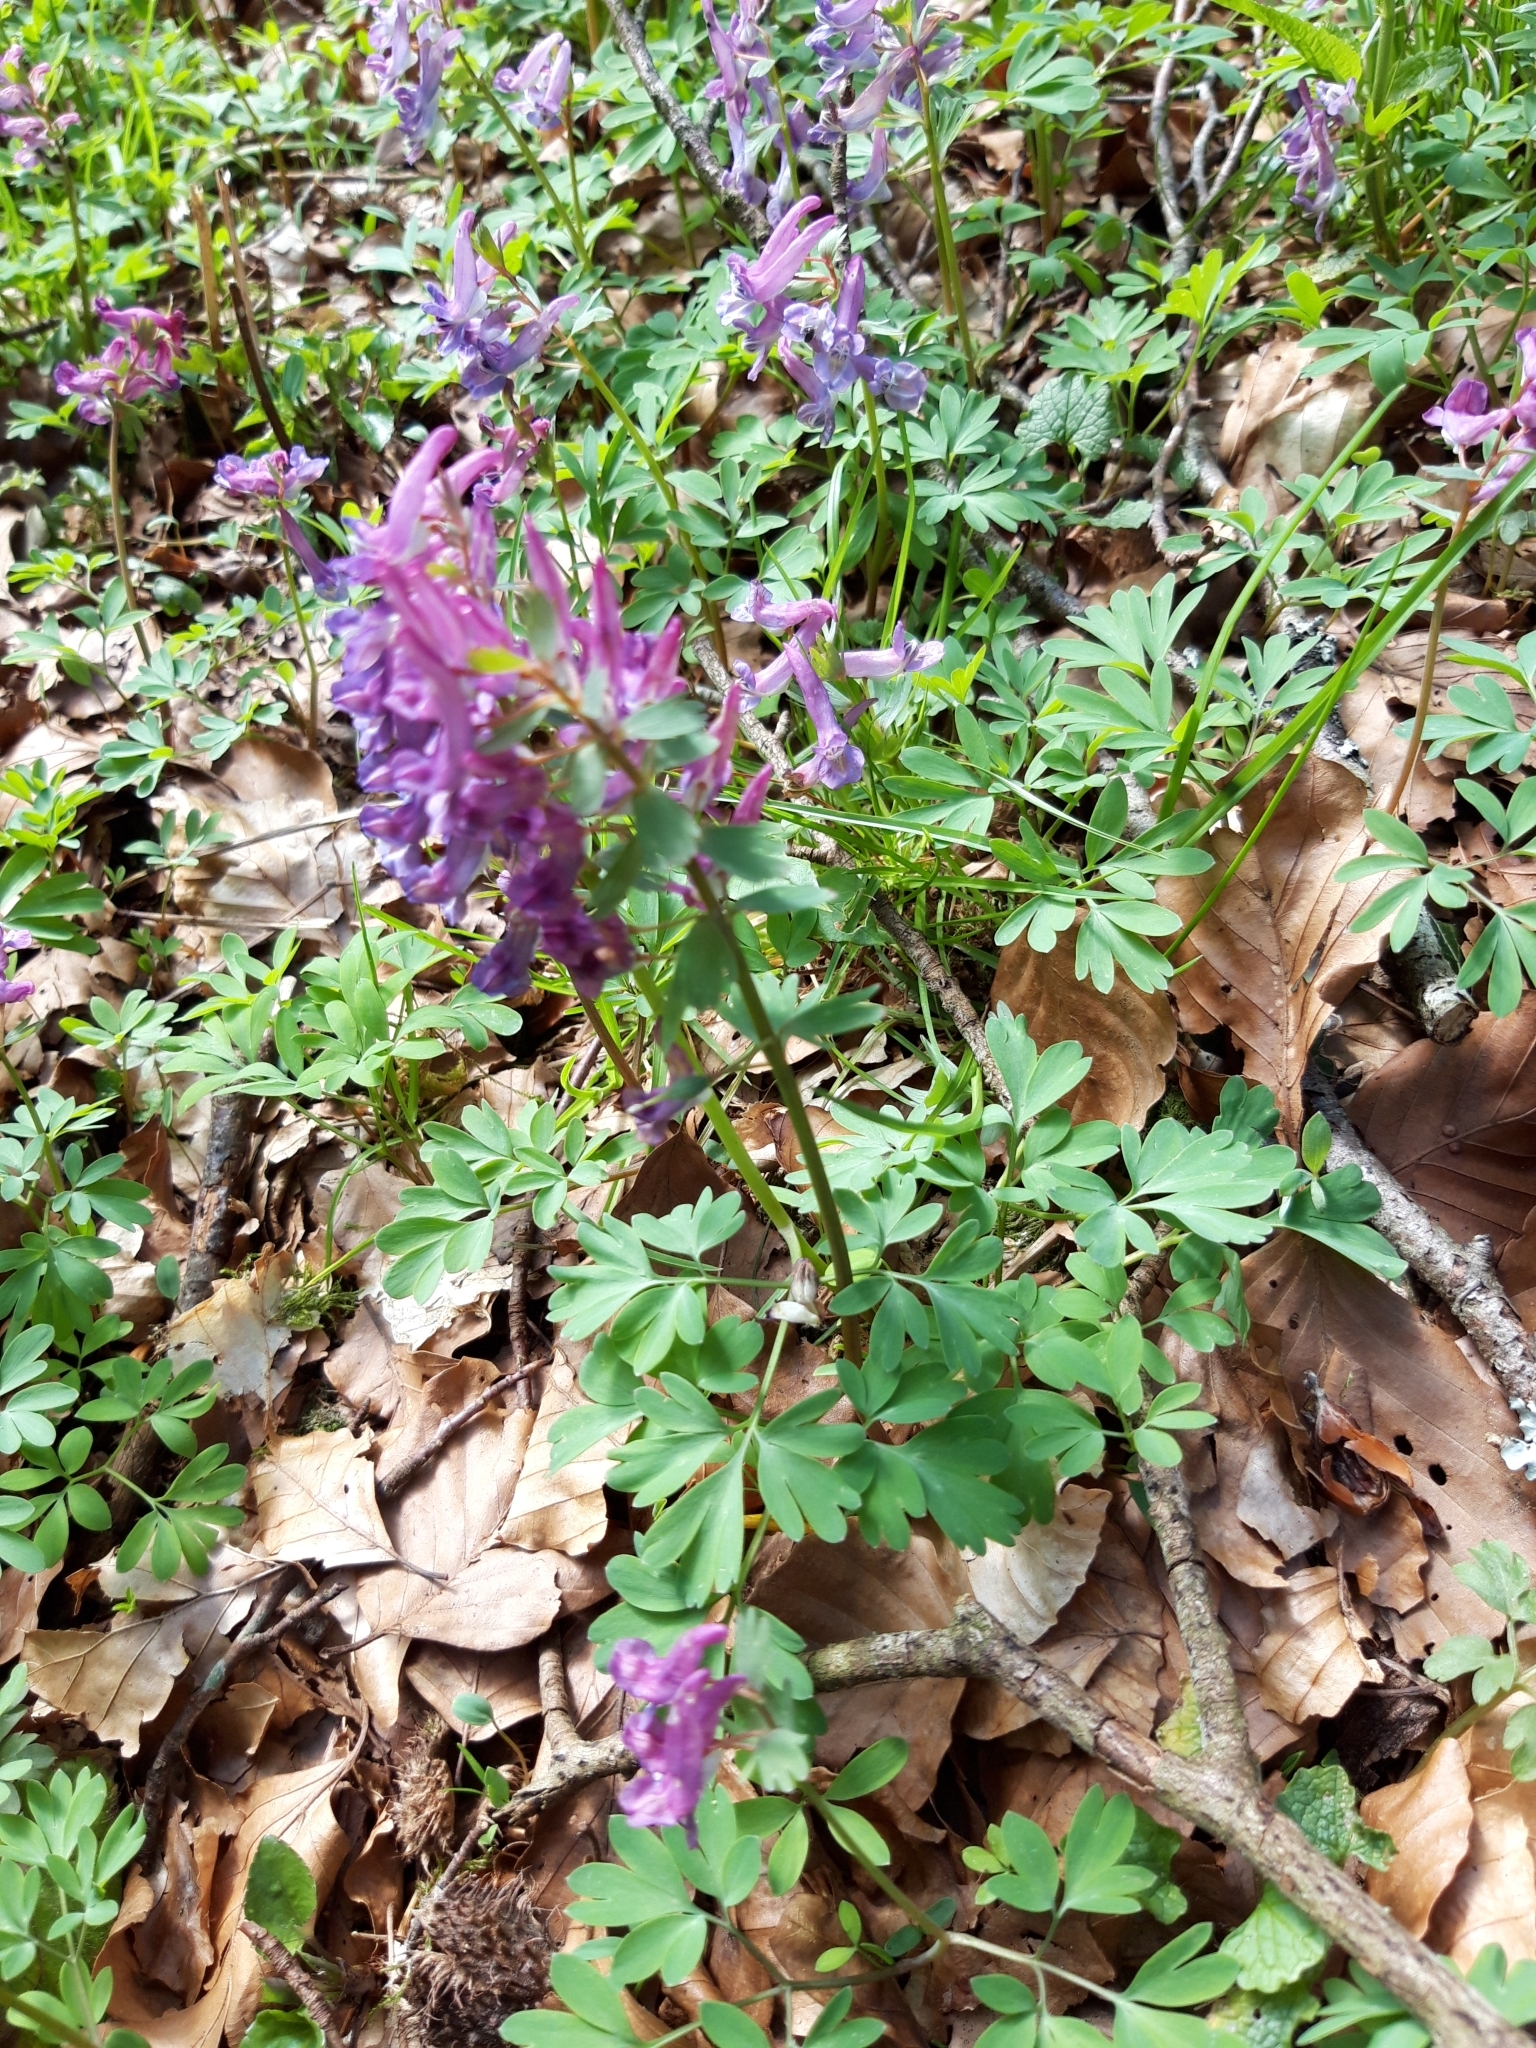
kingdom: Plantae
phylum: Tracheophyta
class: Magnoliopsida
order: Ranunculales
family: Papaveraceae
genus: Corydalis
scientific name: Corydalis solida
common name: Bird-in-a-bush
